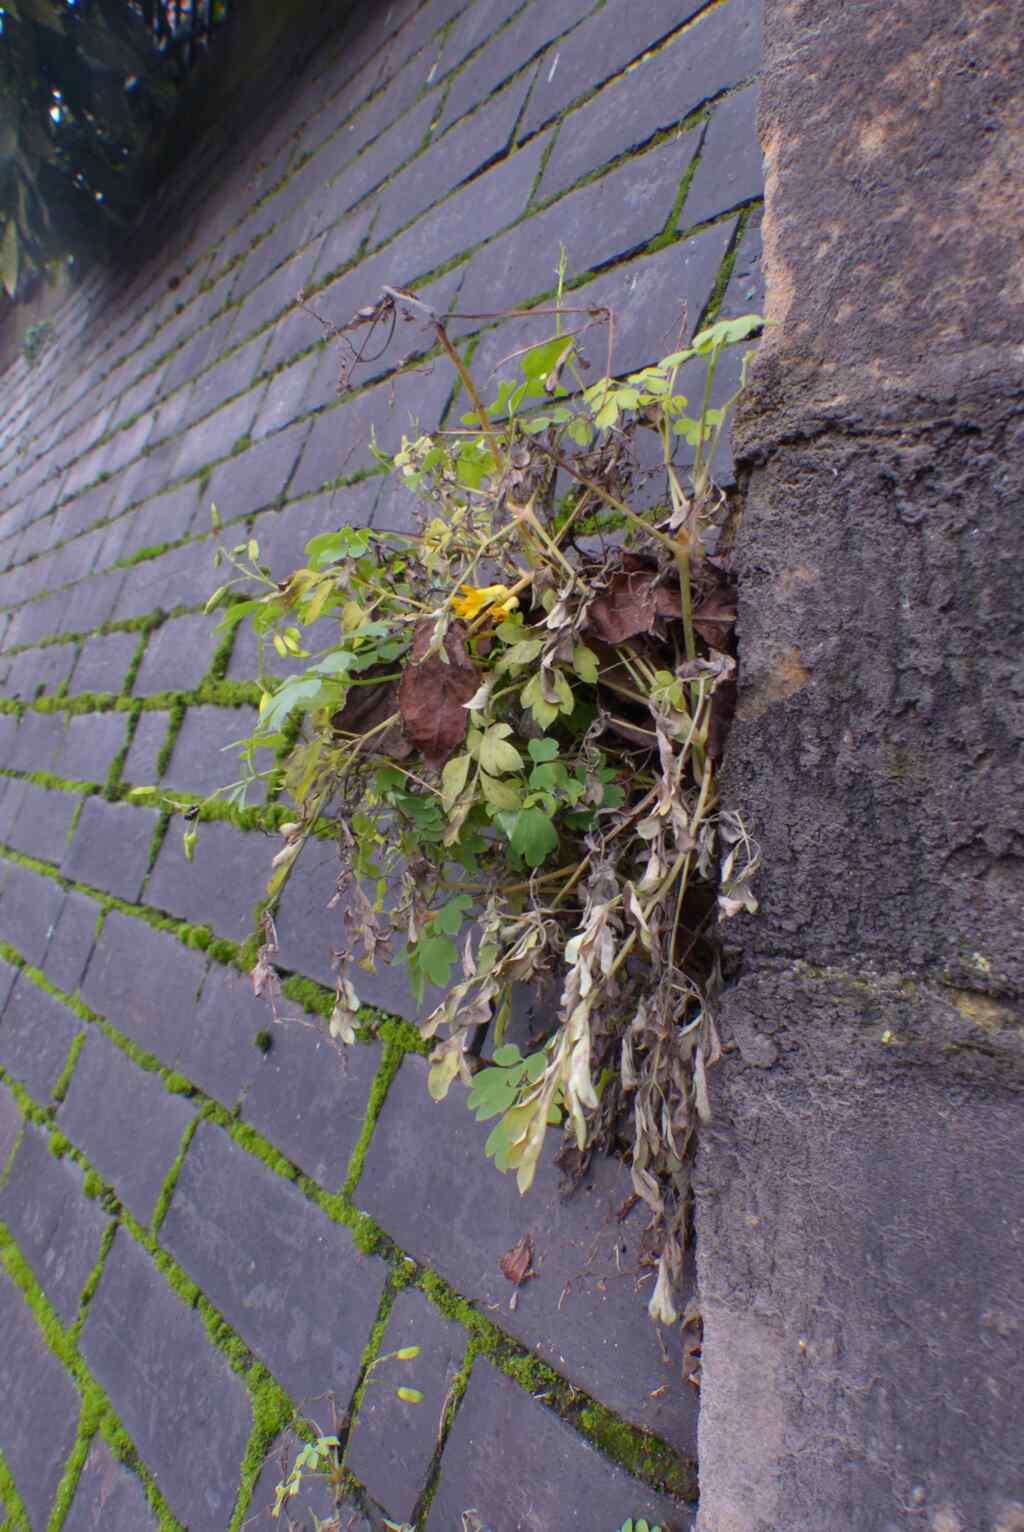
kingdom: Plantae
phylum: Tracheophyta
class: Magnoliopsida
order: Ranunculales
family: Papaveraceae
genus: Pseudofumaria
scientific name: Pseudofumaria lutea
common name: Yellow corydalis
